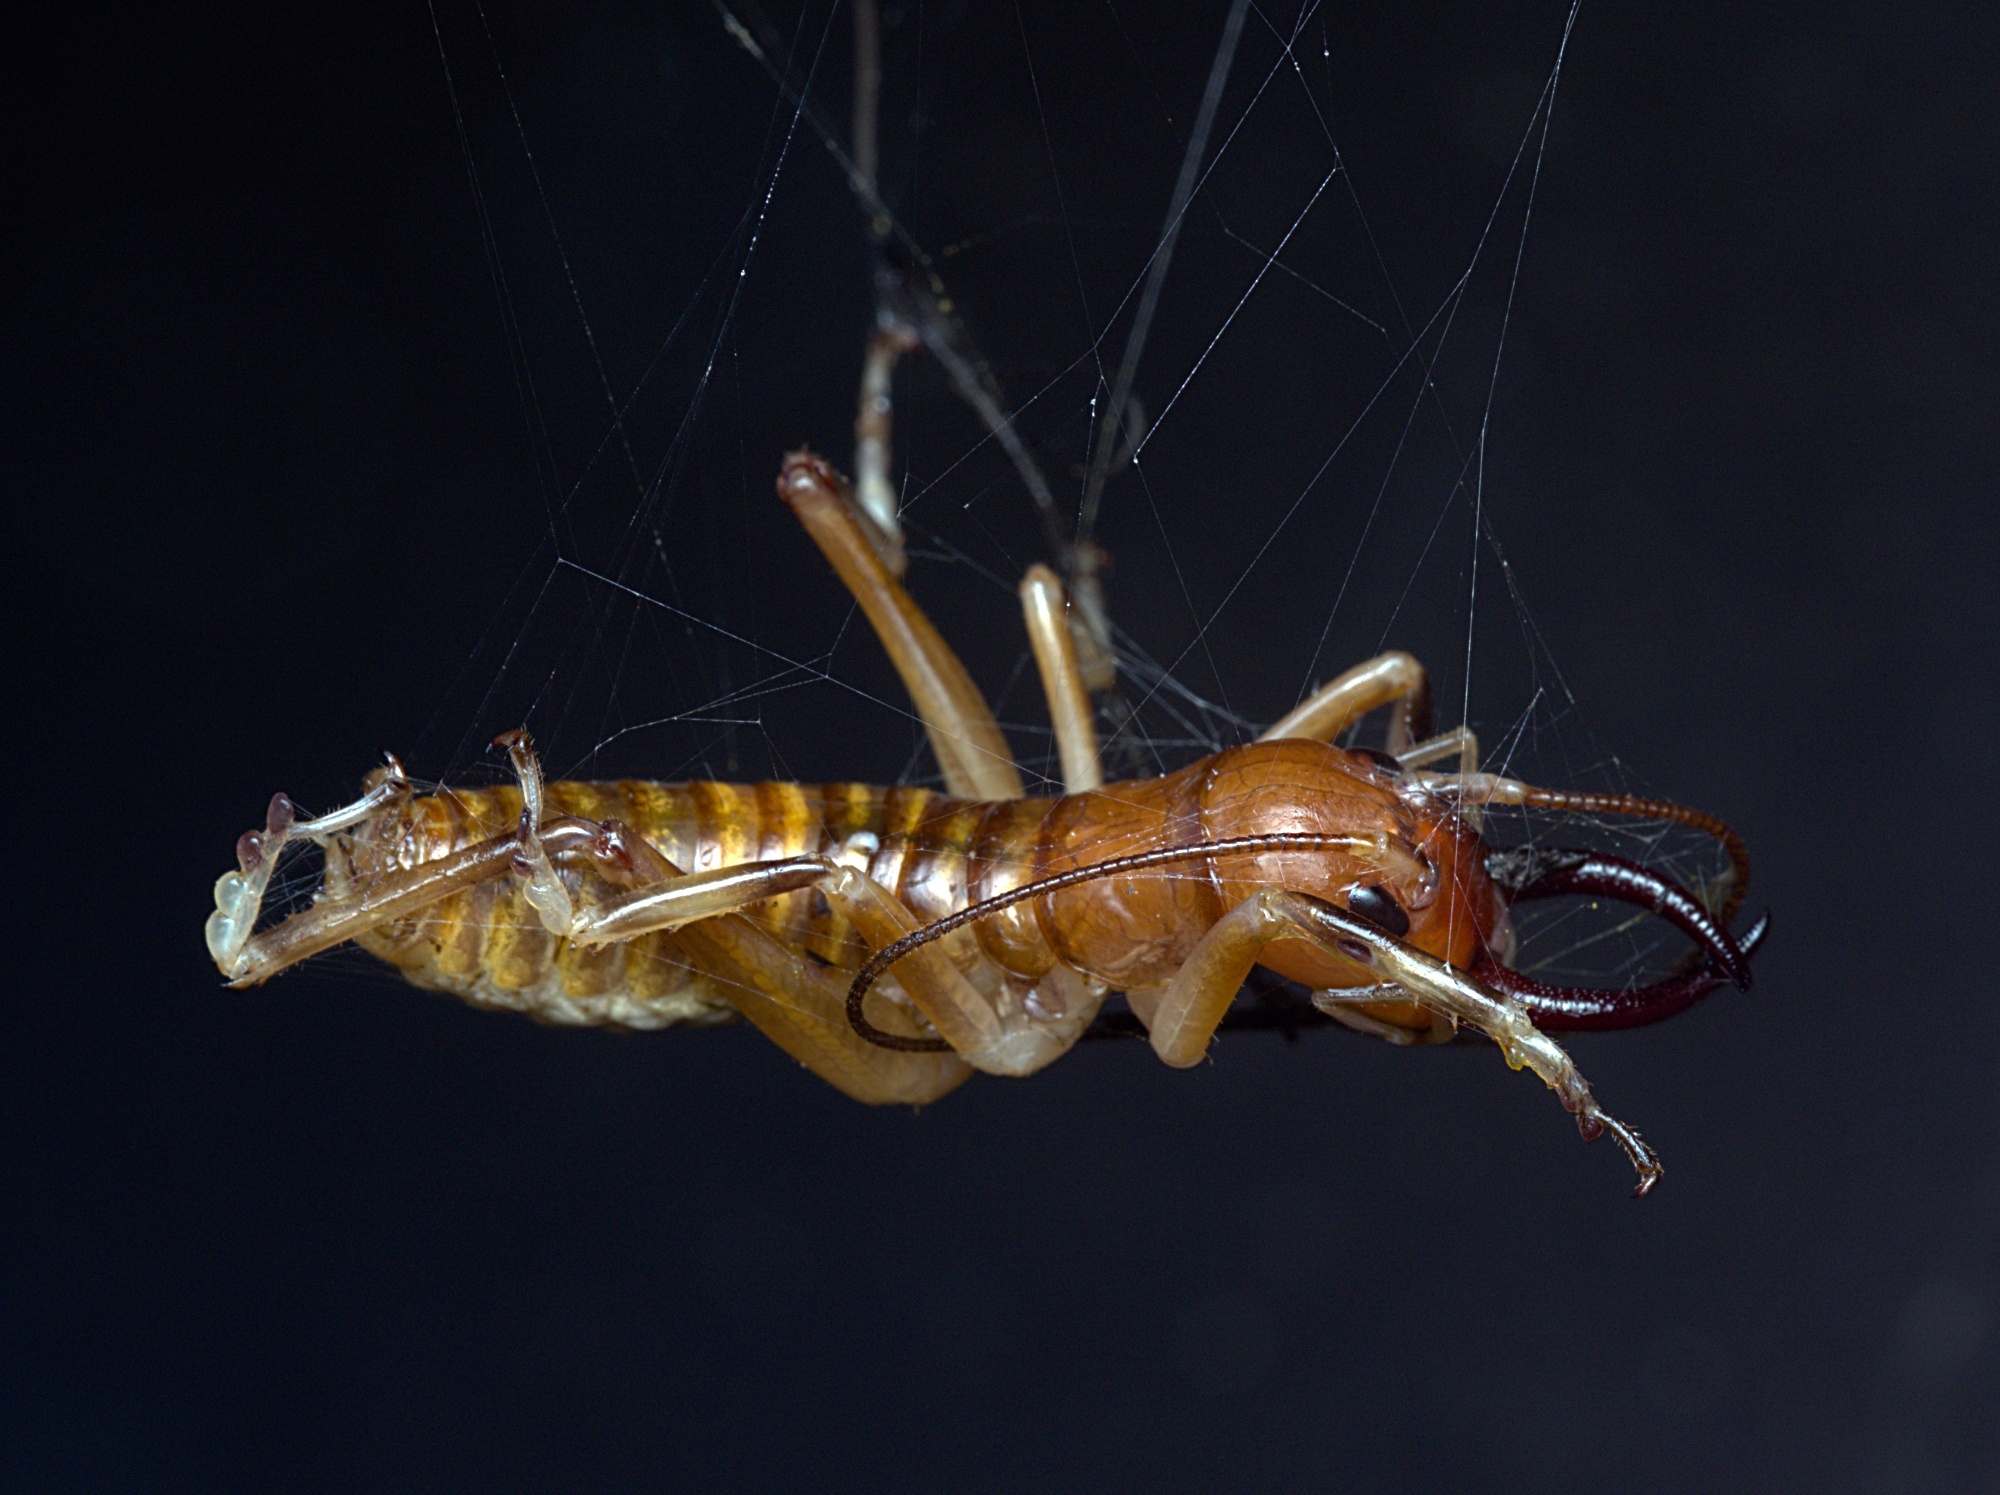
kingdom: Animalia
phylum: Arthropoda
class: Insecta
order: Orthoptera
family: Anostostomatidae
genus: Anisoura
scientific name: Anisoura nicobarica
